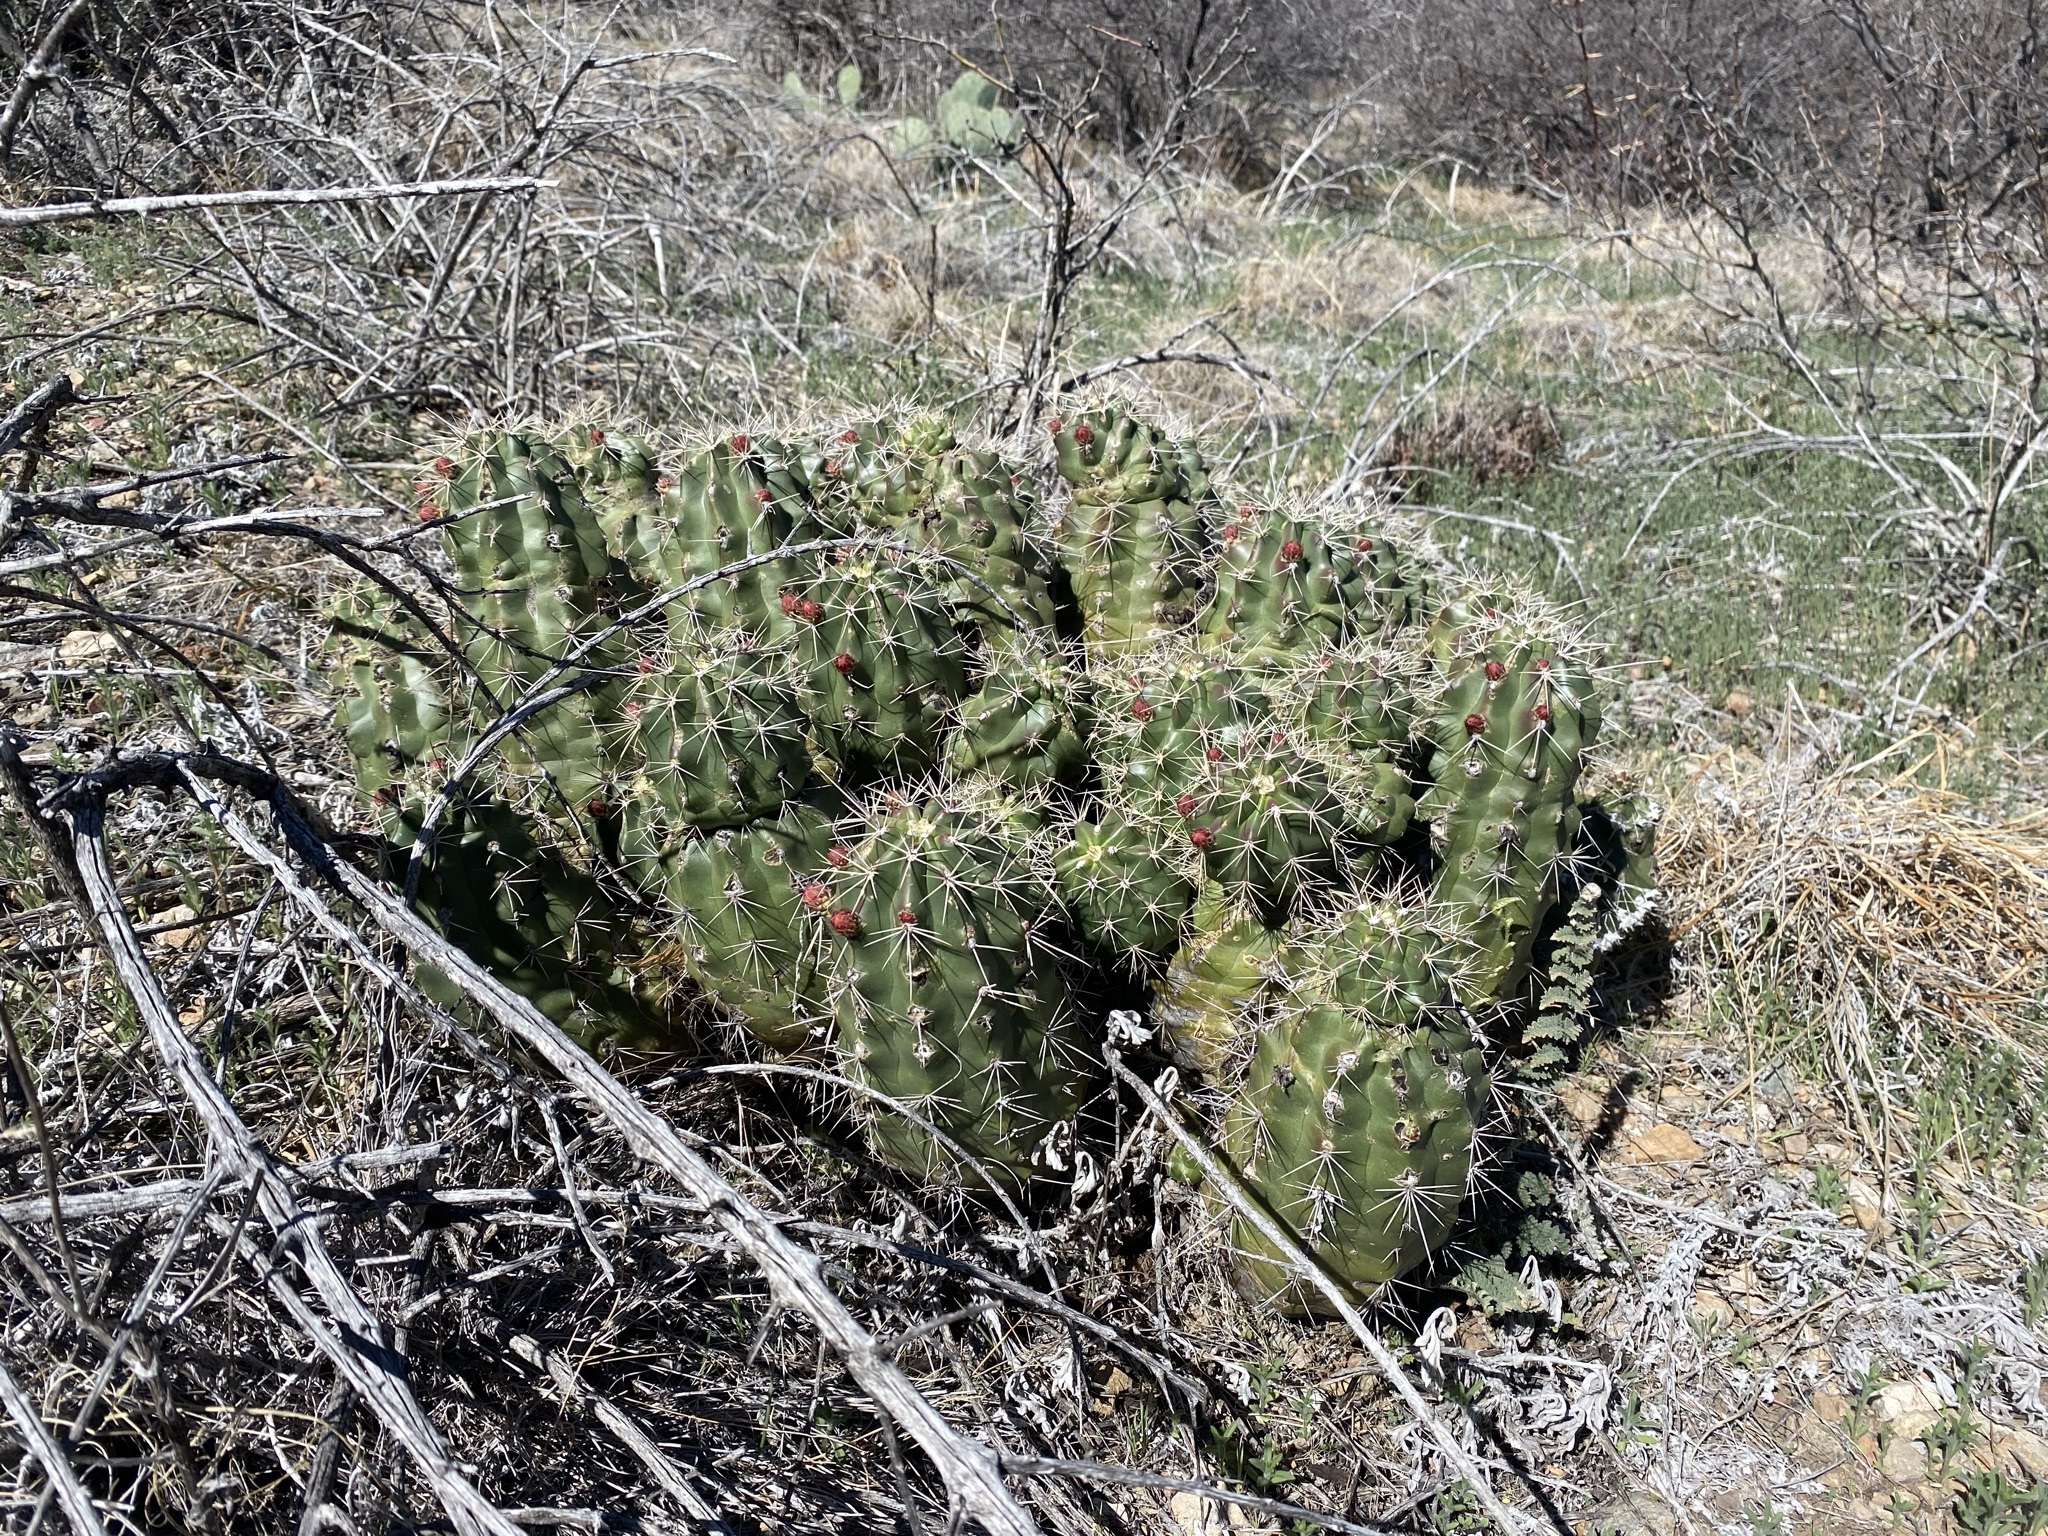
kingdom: Plantae
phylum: Tracheophyta
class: Magnoliopsida
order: Caryophyllales
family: Cactaceae
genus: Echinocereus
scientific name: Echinocereus coccineus
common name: Scarlet hedgehog cactus
